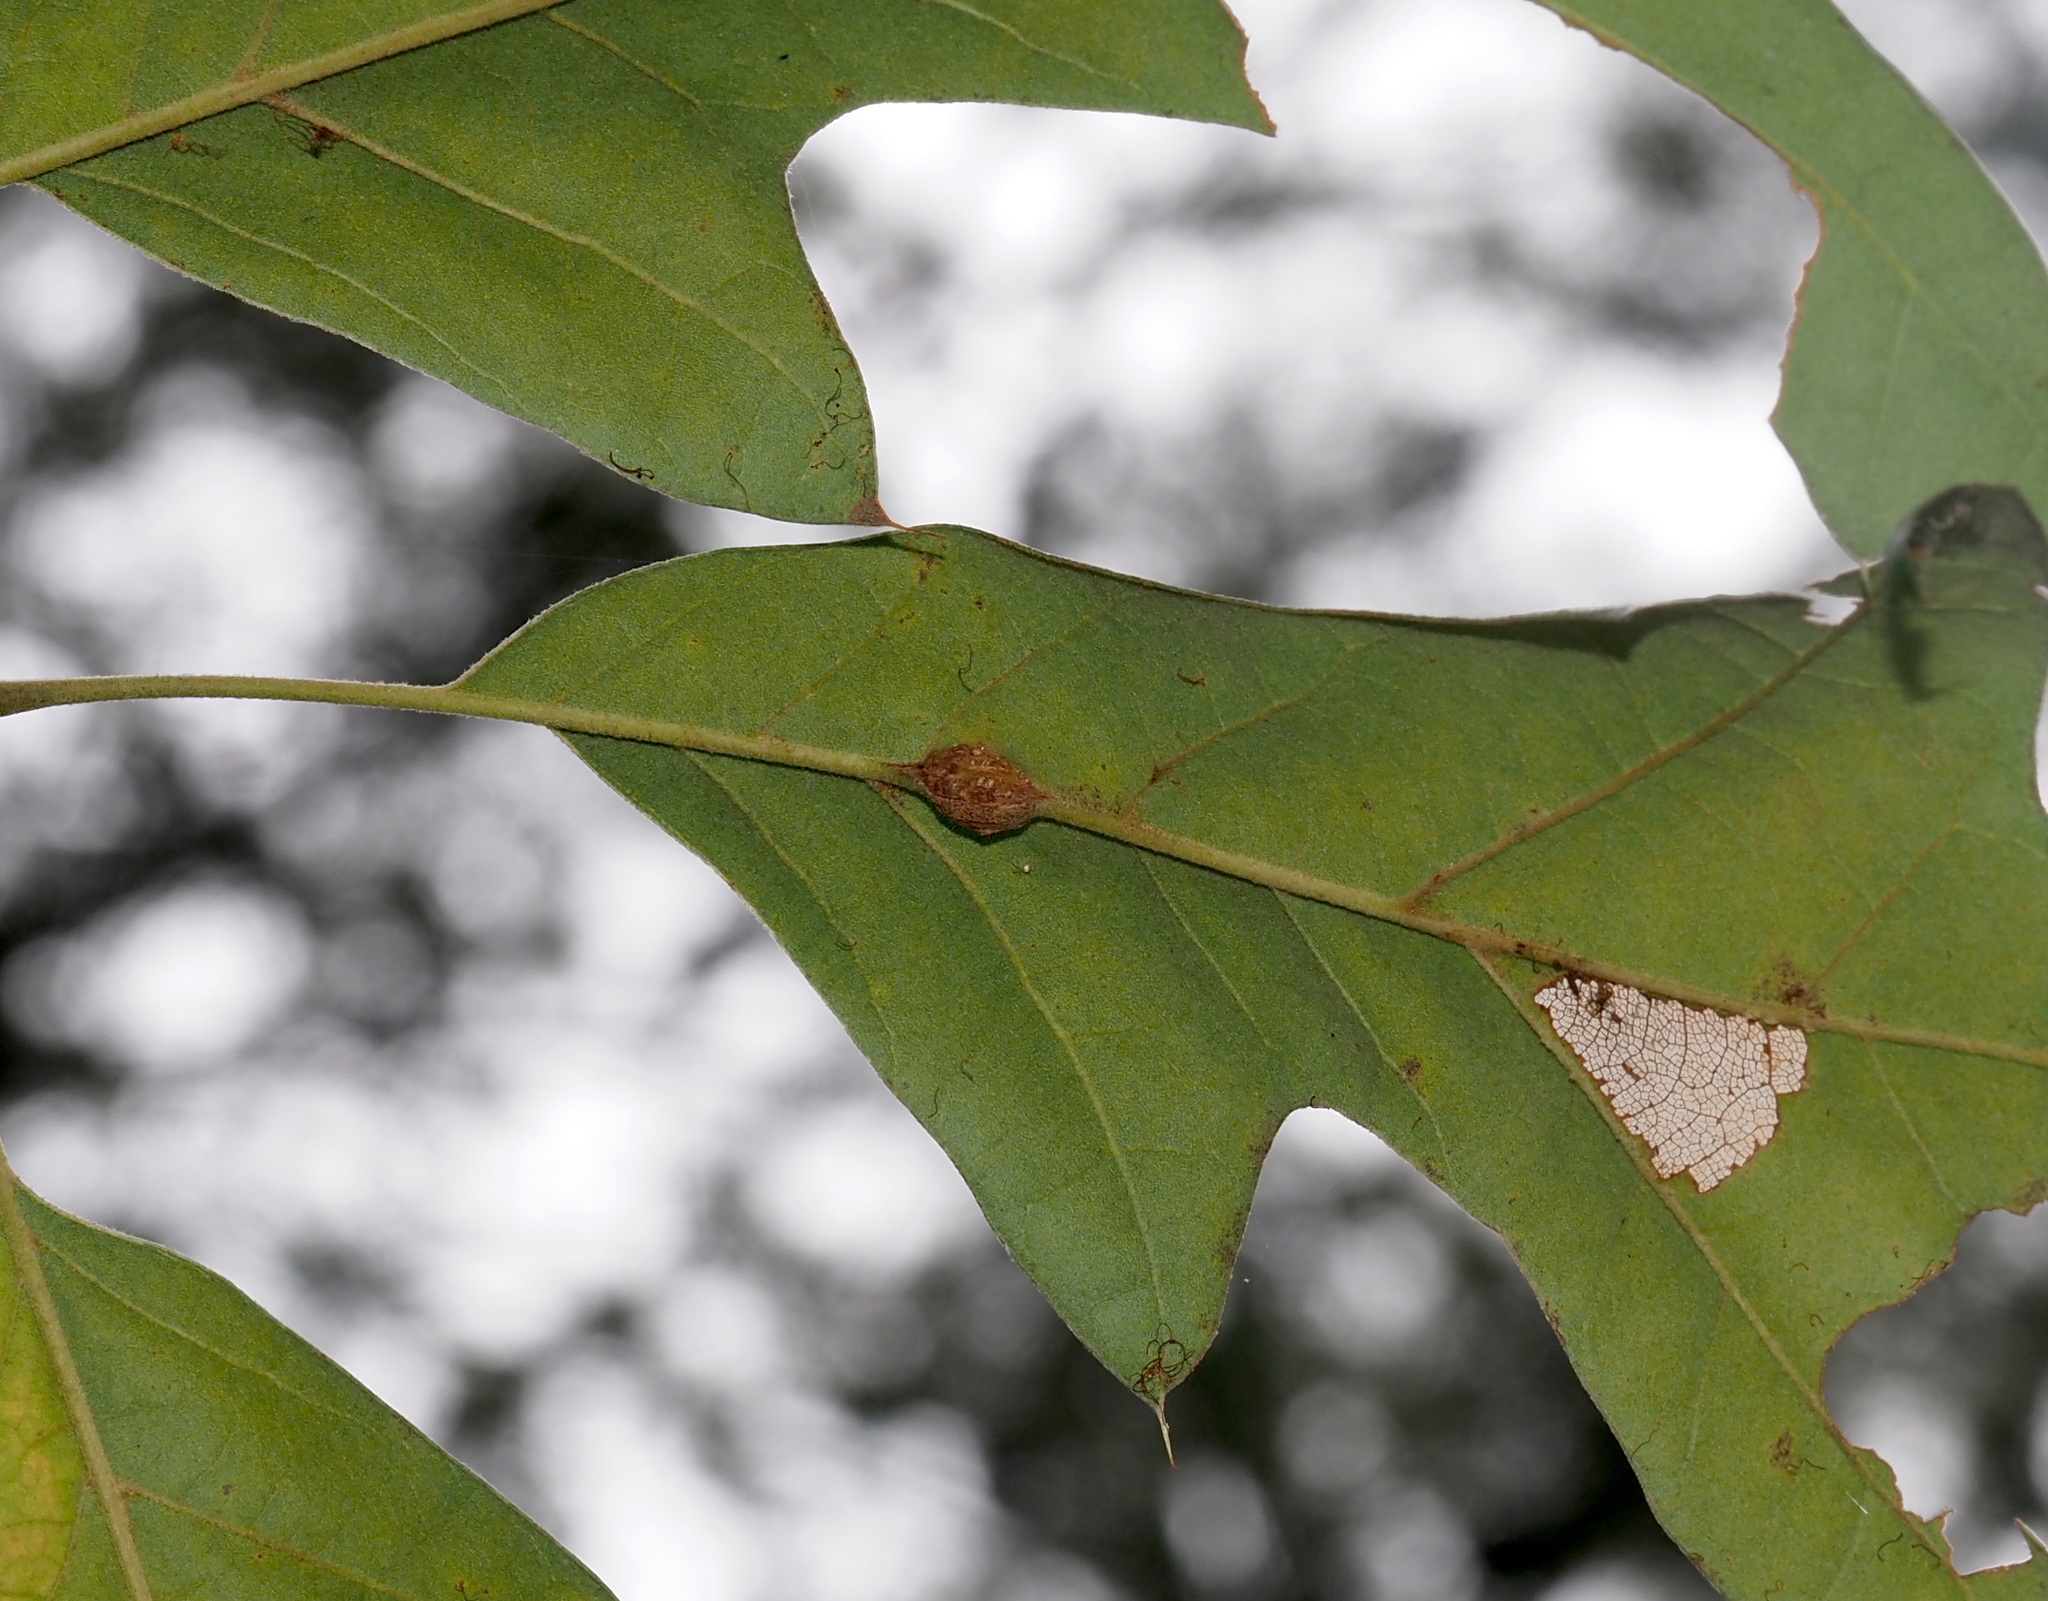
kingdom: Animalia
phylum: Arthropoda
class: Insecta
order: Hymenoptera
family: Cynipidae
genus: Kokkocynips
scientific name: Kokkocynips decidua
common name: Oak wheat gall
